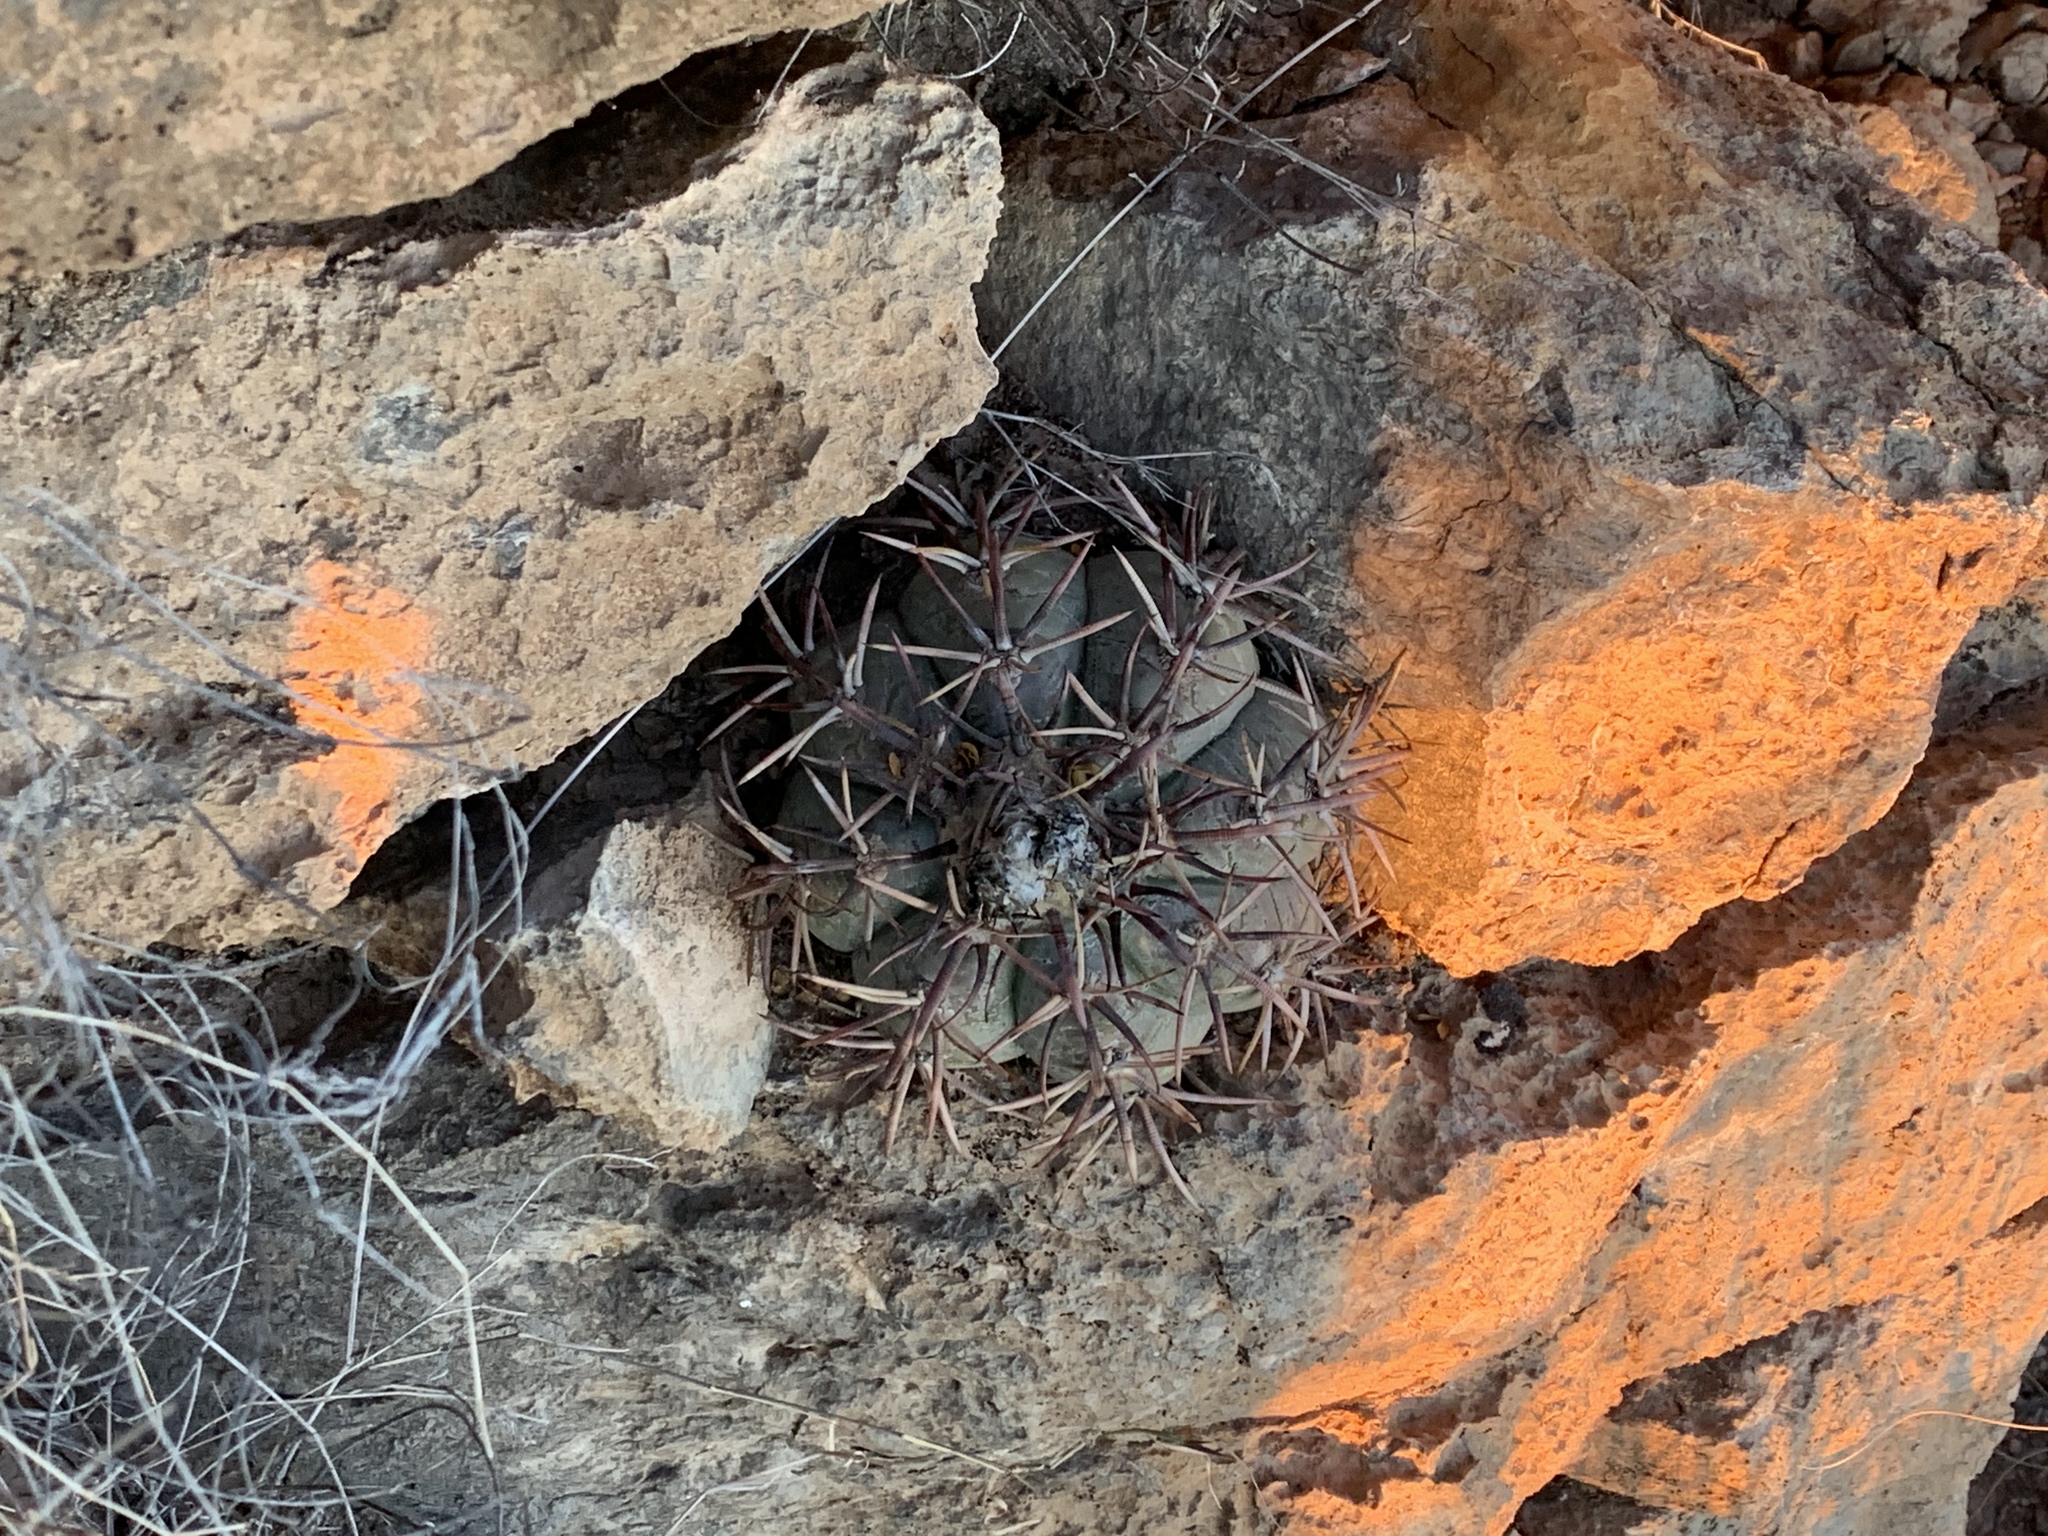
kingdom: Plantae
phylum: Tracheophyta
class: Magnoliopsida
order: Caryophyllales
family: Cactaceae
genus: Echinocactus
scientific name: Echinocactus horizonthalonius
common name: Devilshead
